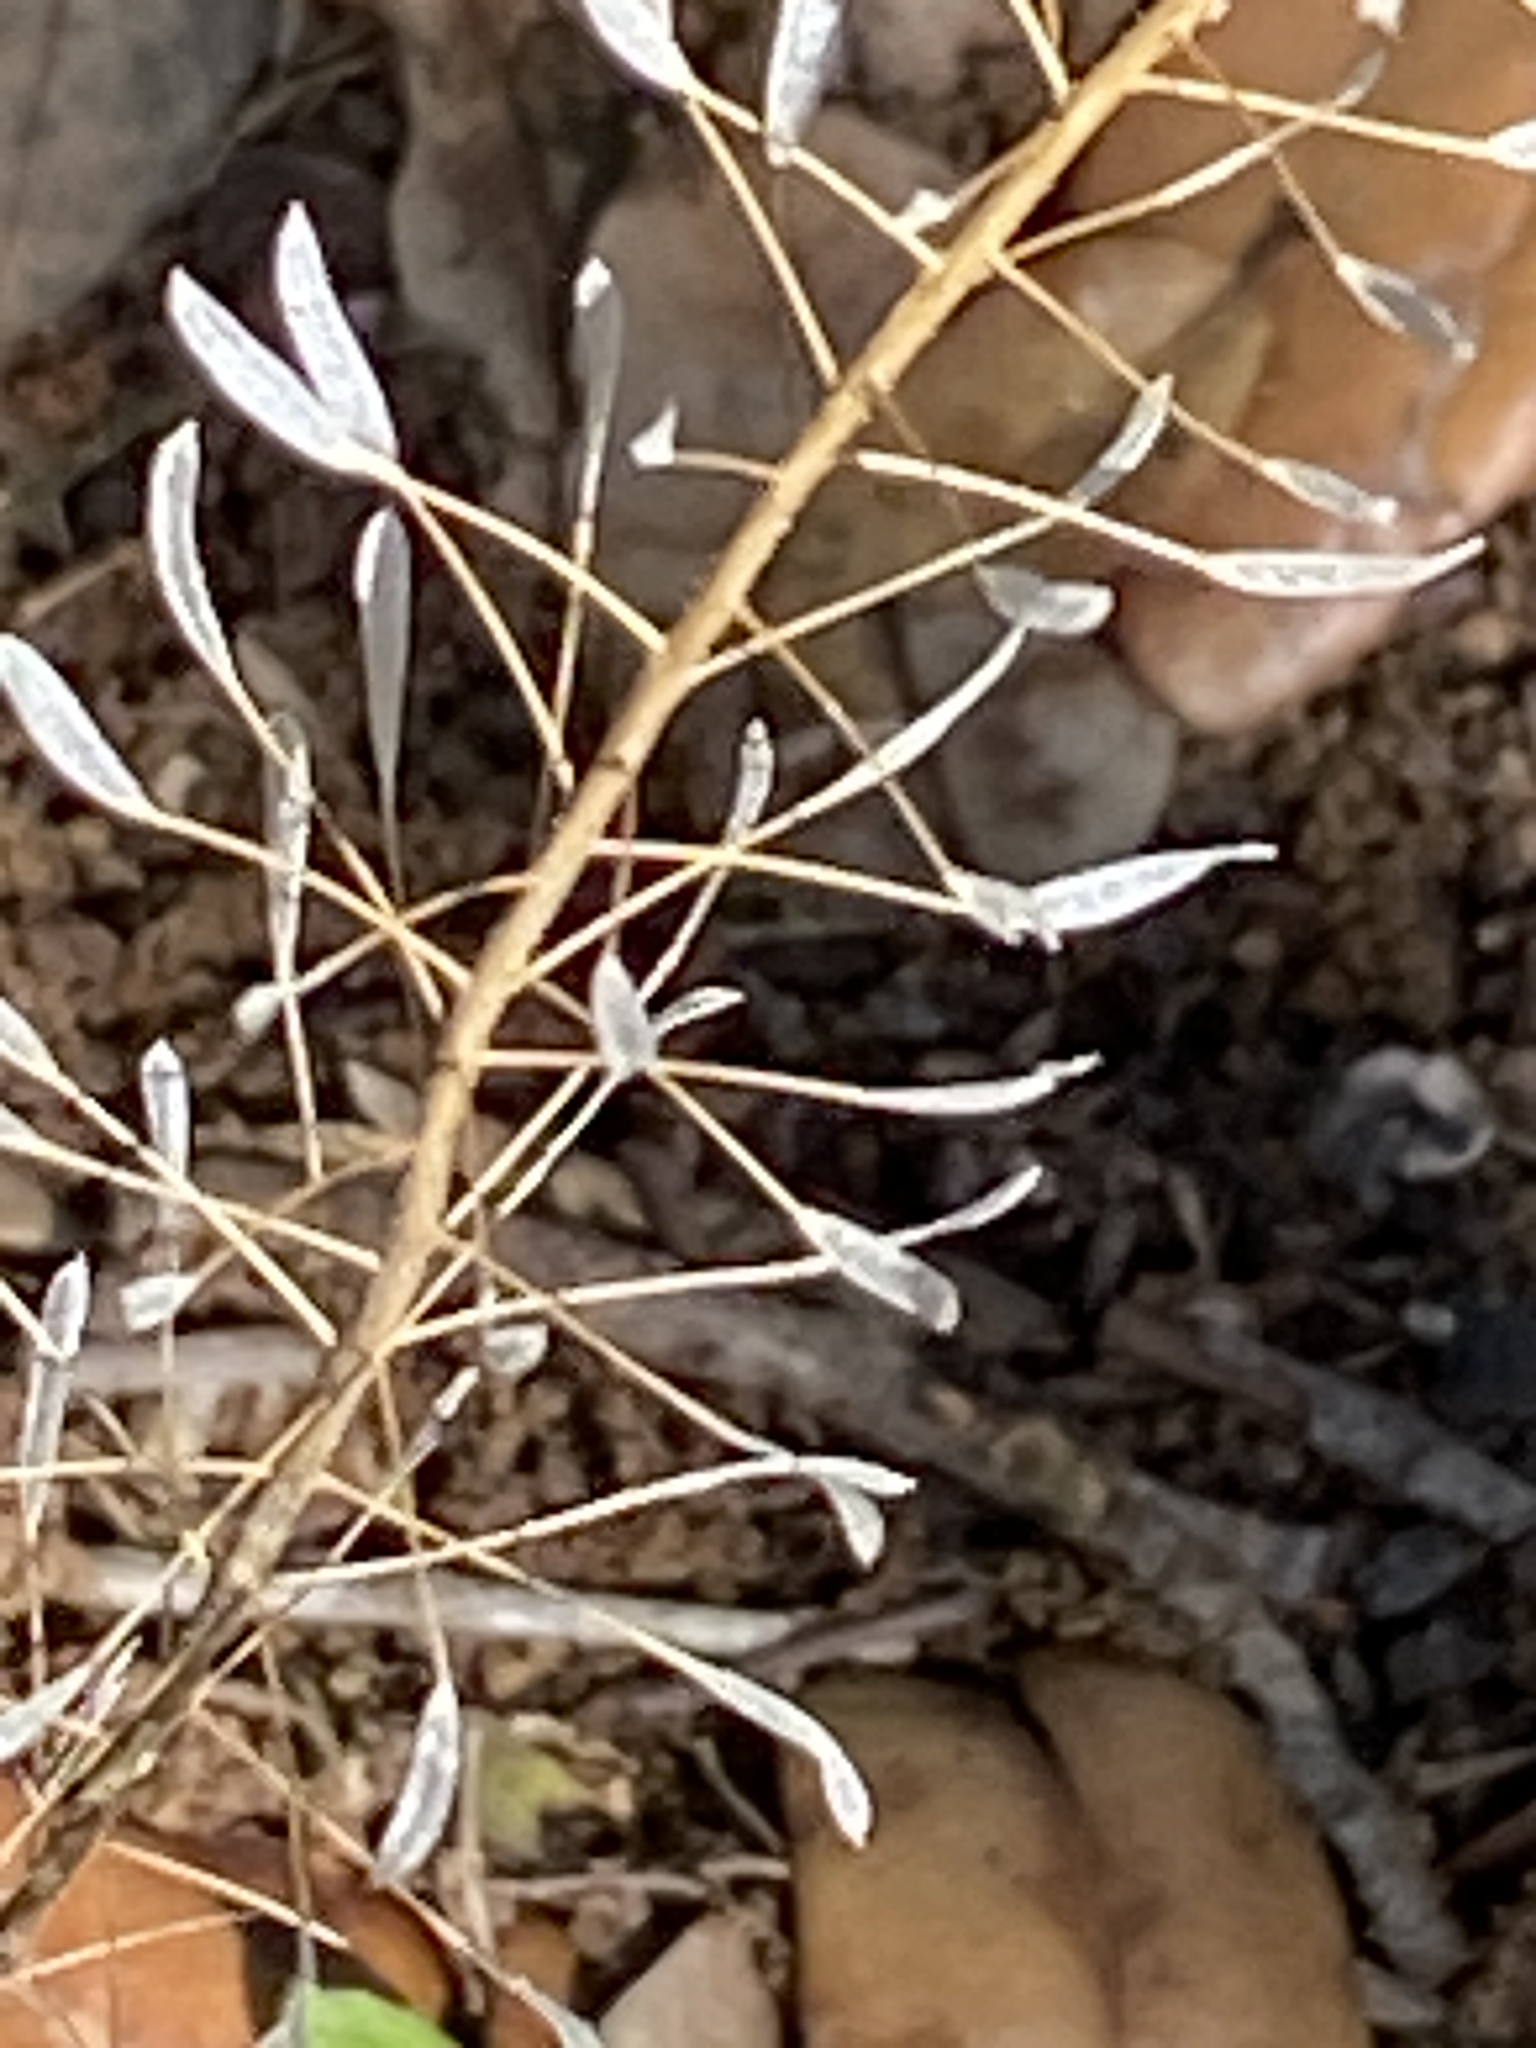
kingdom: Plantae
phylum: Tracheophyta
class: Magnoliopsida
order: Brassicales
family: Brassicaceae
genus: Capsella
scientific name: Capsella bursa-pastoris
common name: Shepherd's purse
